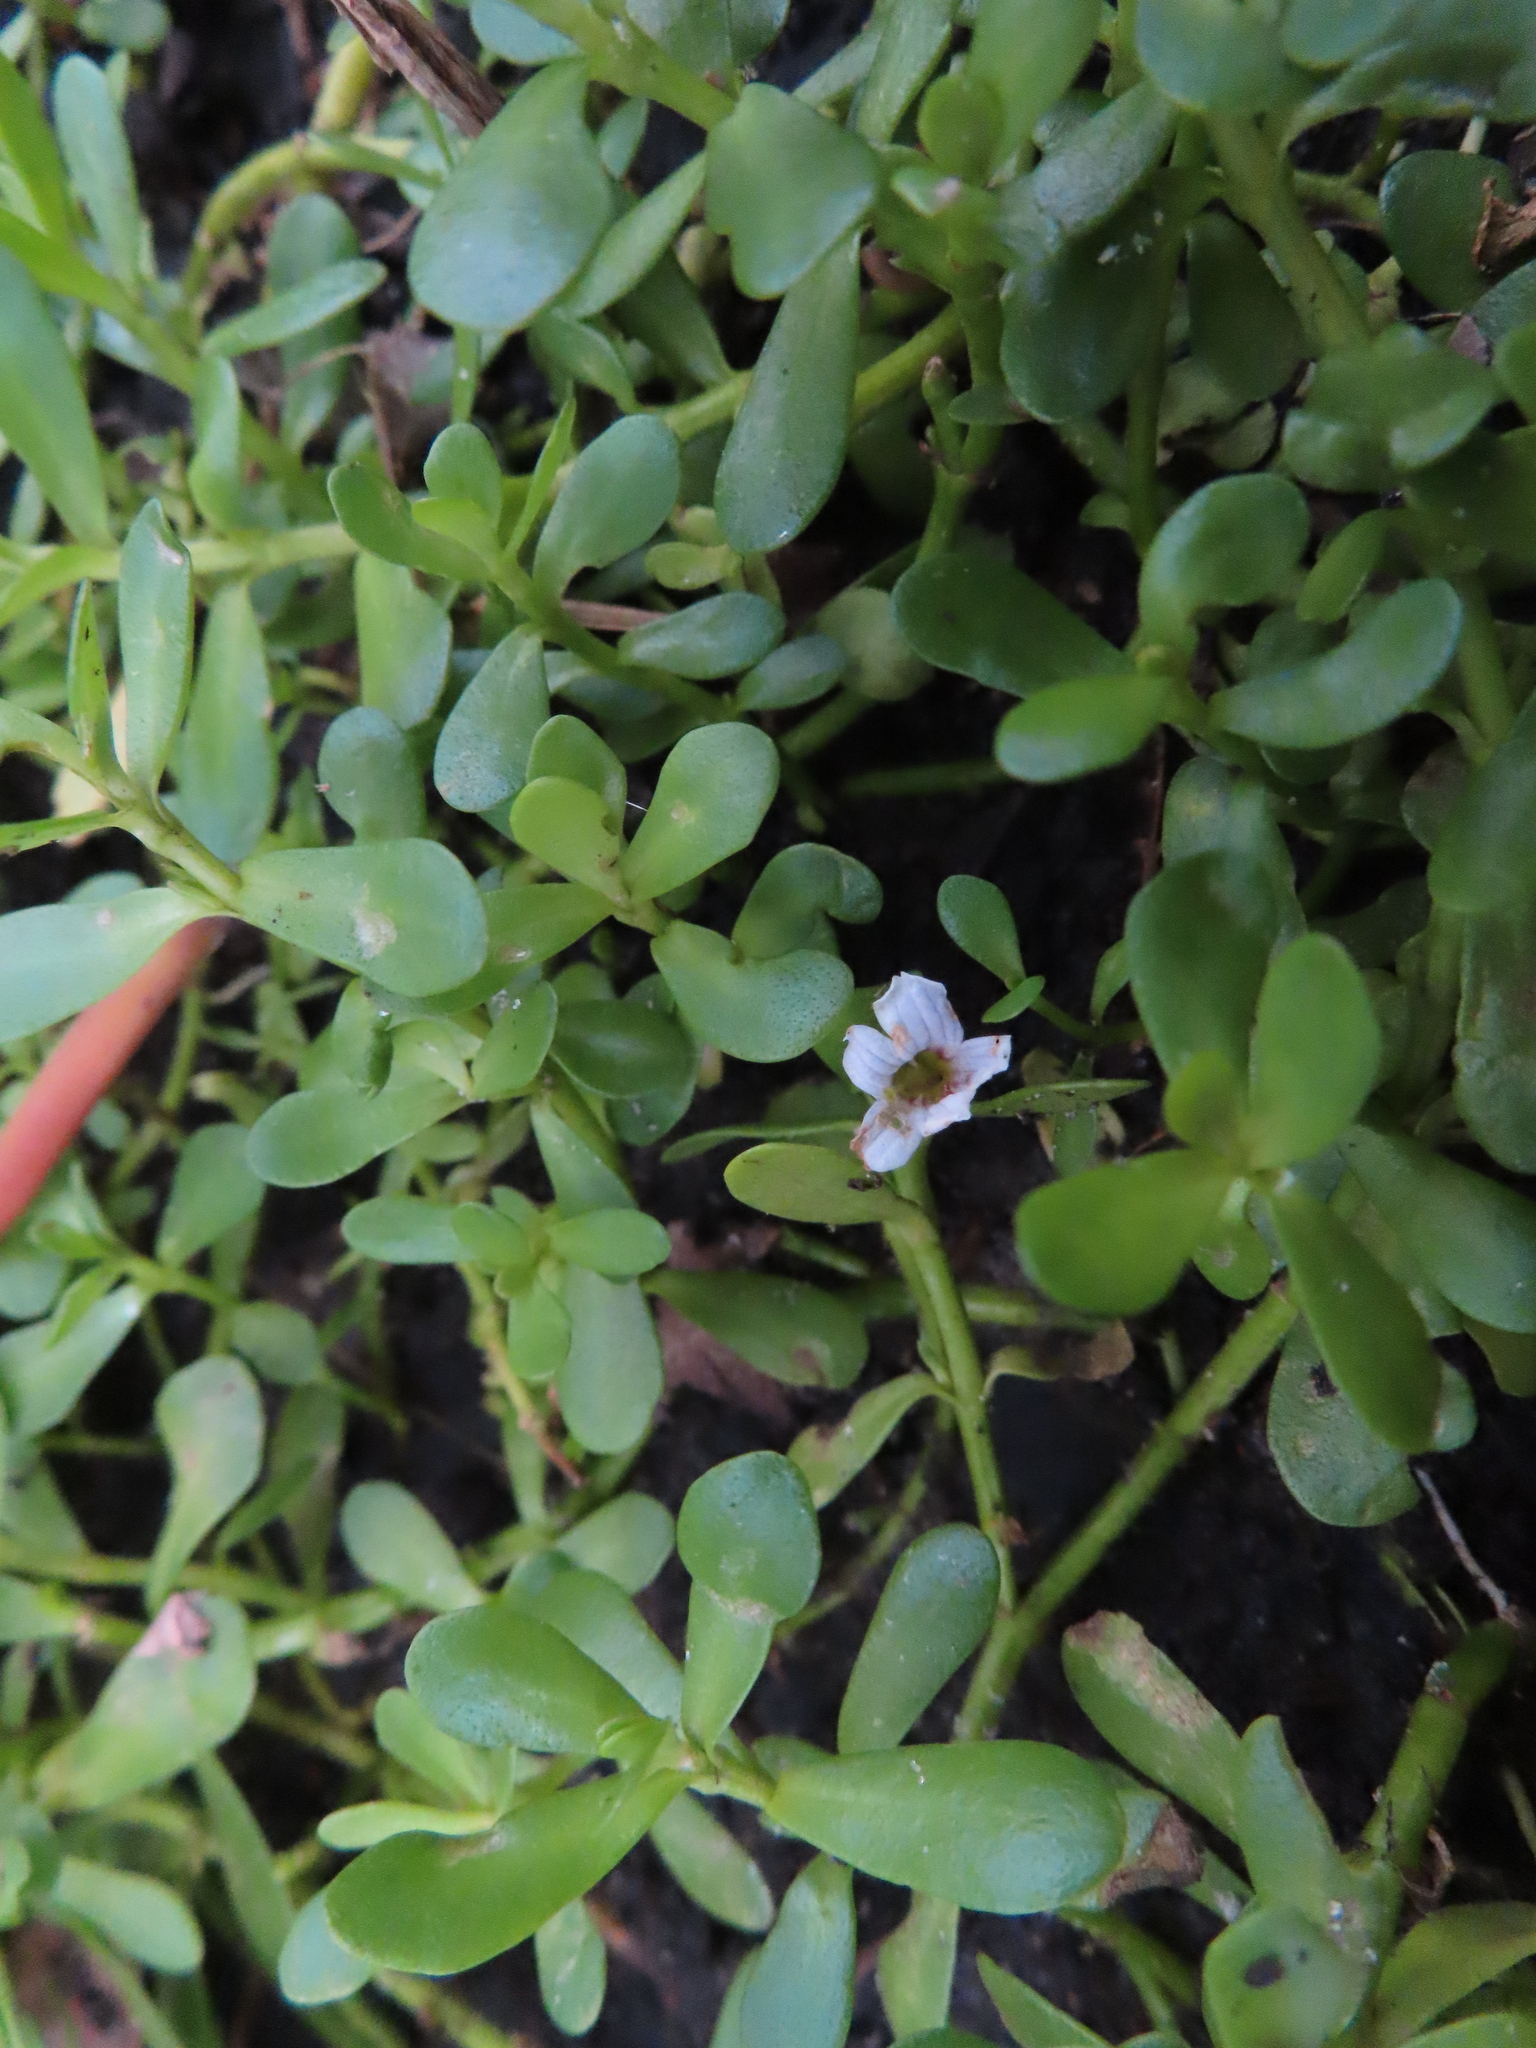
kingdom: Plantae
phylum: Tracheophyta
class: Magnoliopsida
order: Lamiales
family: Plantaginaceae
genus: Bacopa
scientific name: Bacopa monnieri
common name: Indian-pennywort
